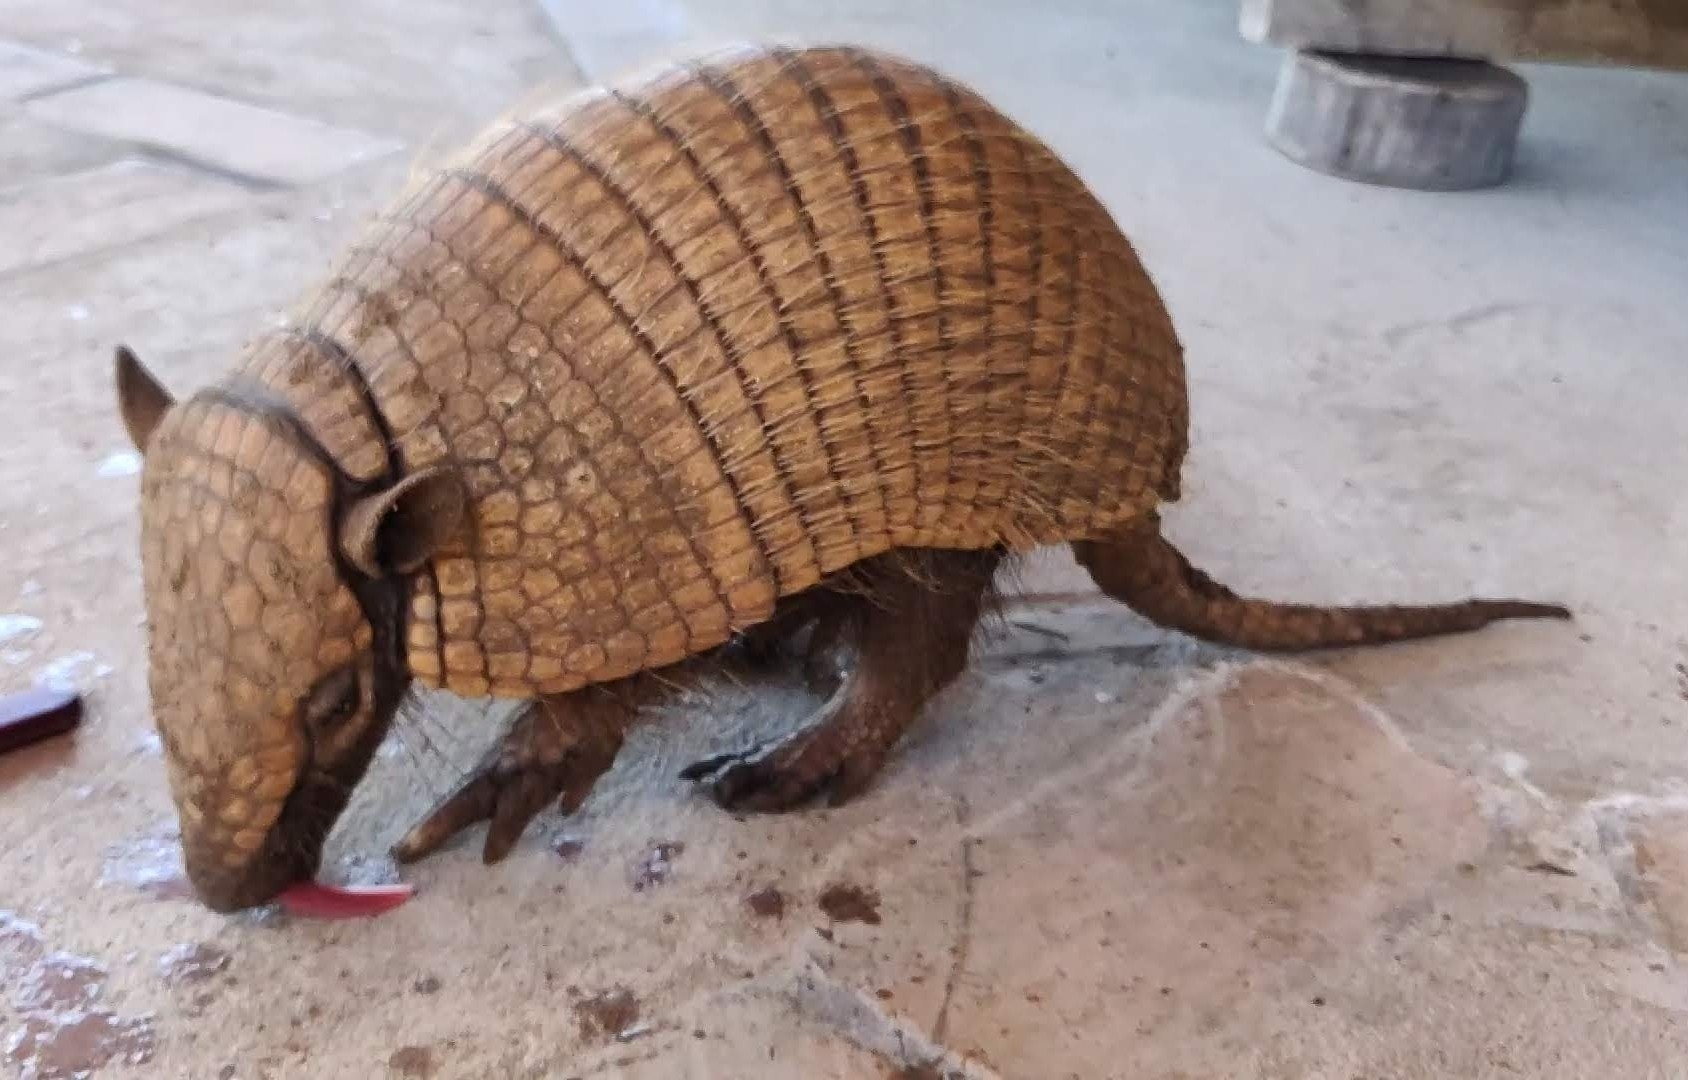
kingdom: Animalia
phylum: Chordata
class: Mammalia
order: Cingulata
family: Dasypodidae
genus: Euphractus
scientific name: Euphractus sexcinctus
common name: Six-banded armadillo
